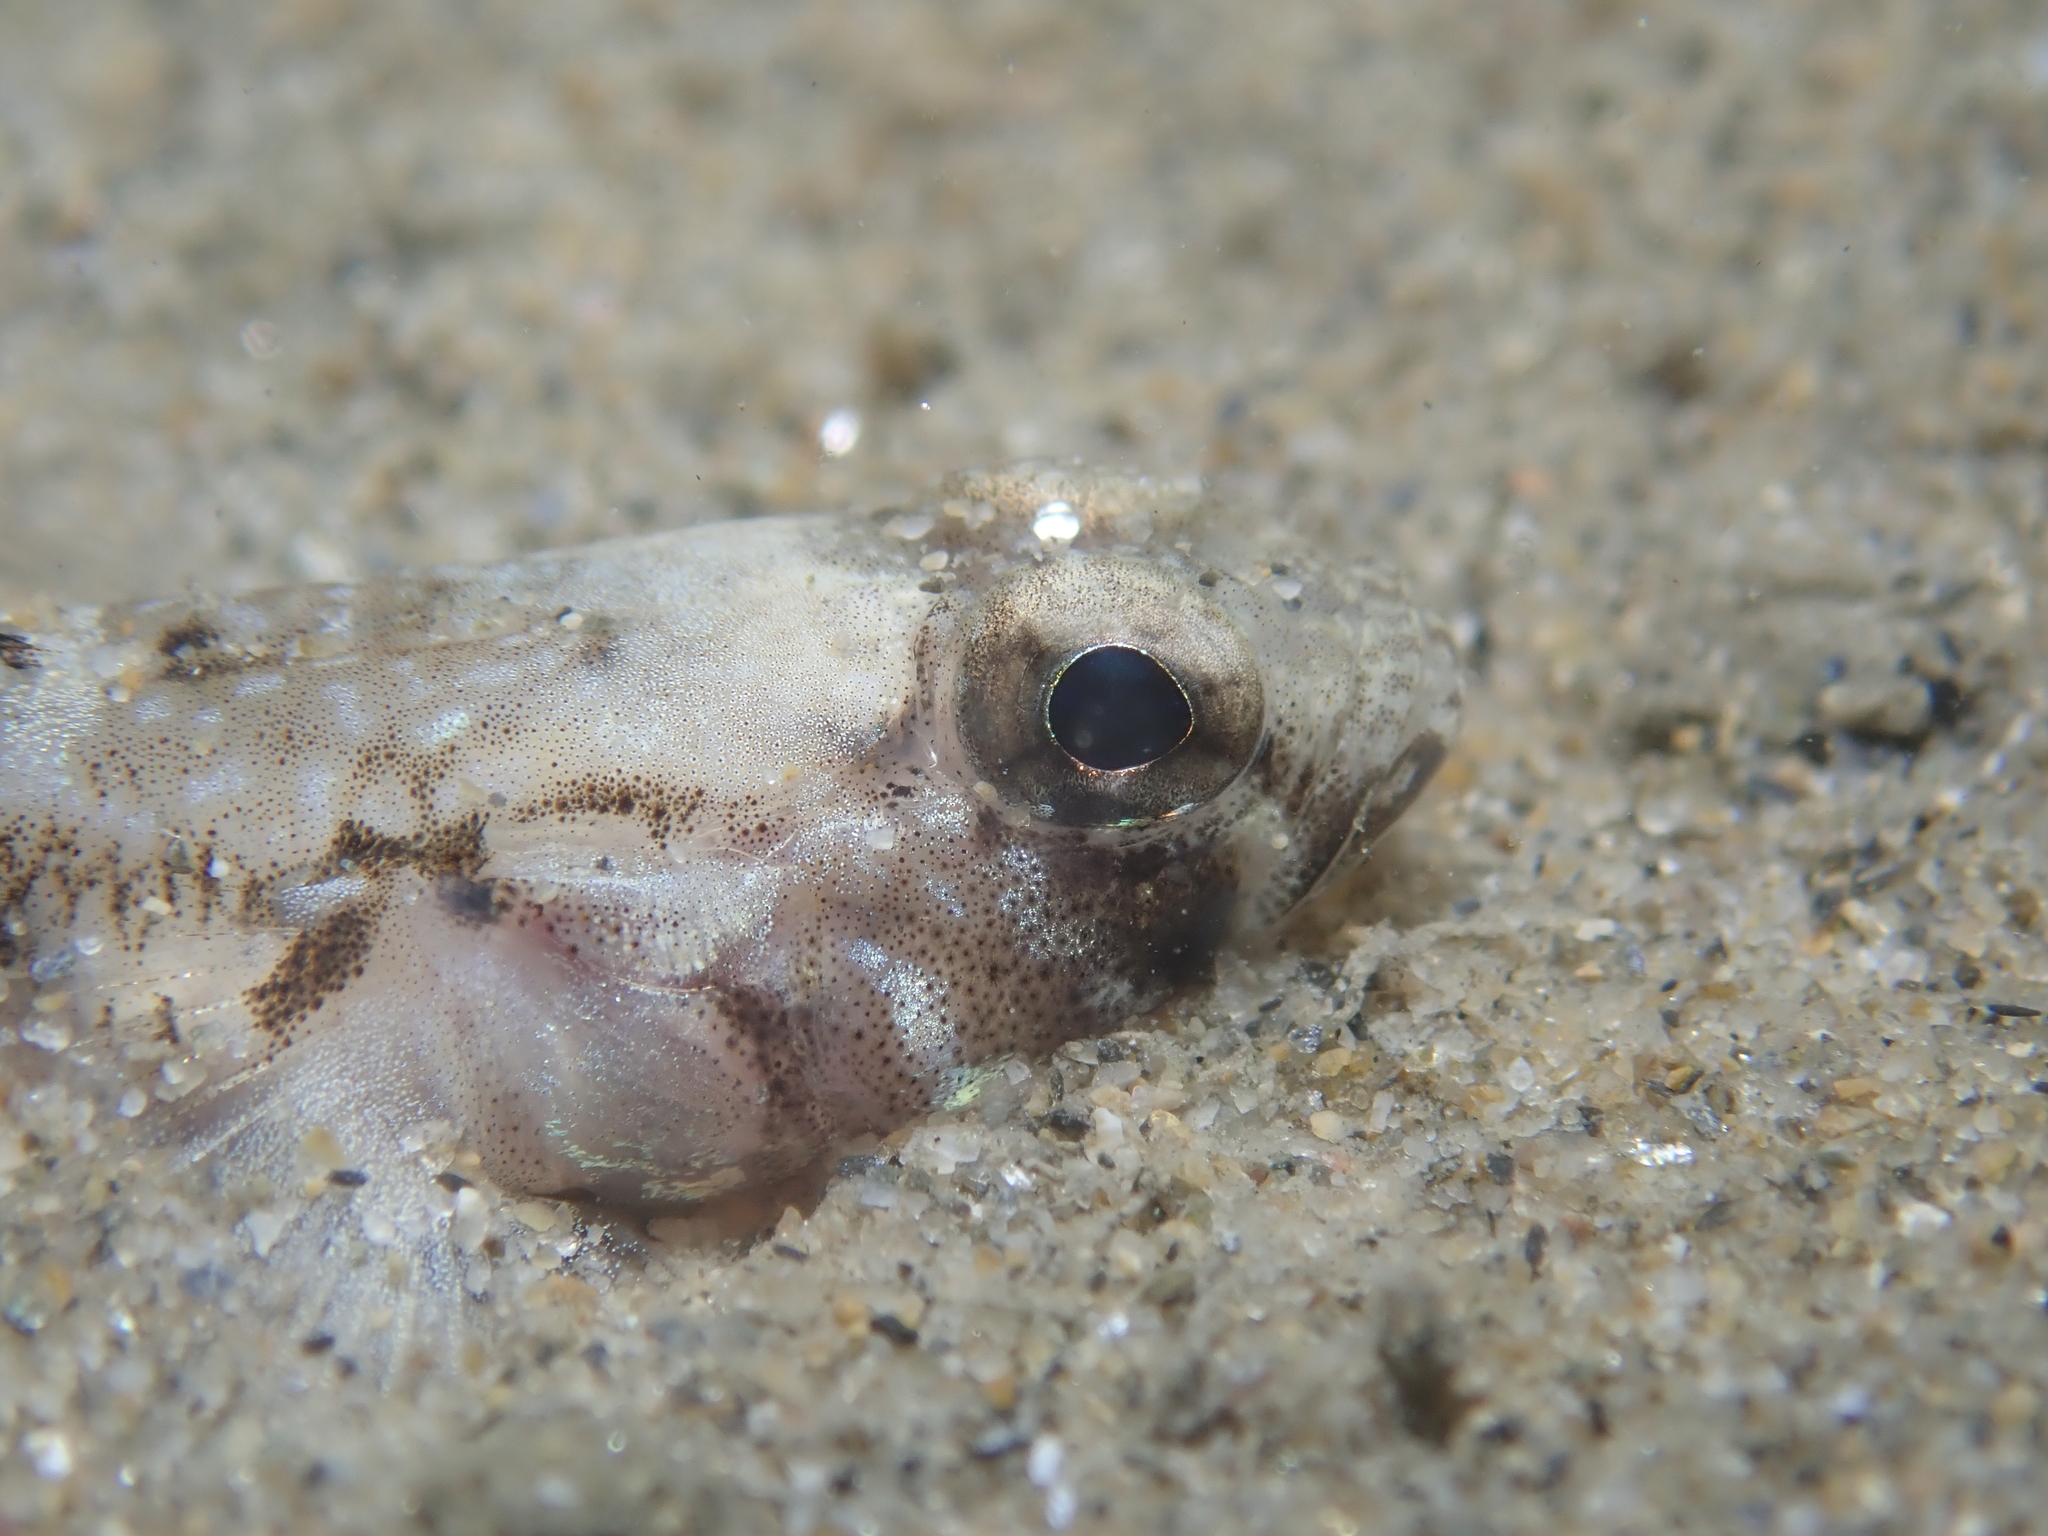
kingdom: Animalia
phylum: Chordata
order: Perciformes
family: Gobiidae
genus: Pomatoschistus
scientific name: Pomatoschistus pictus
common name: Painted goby
